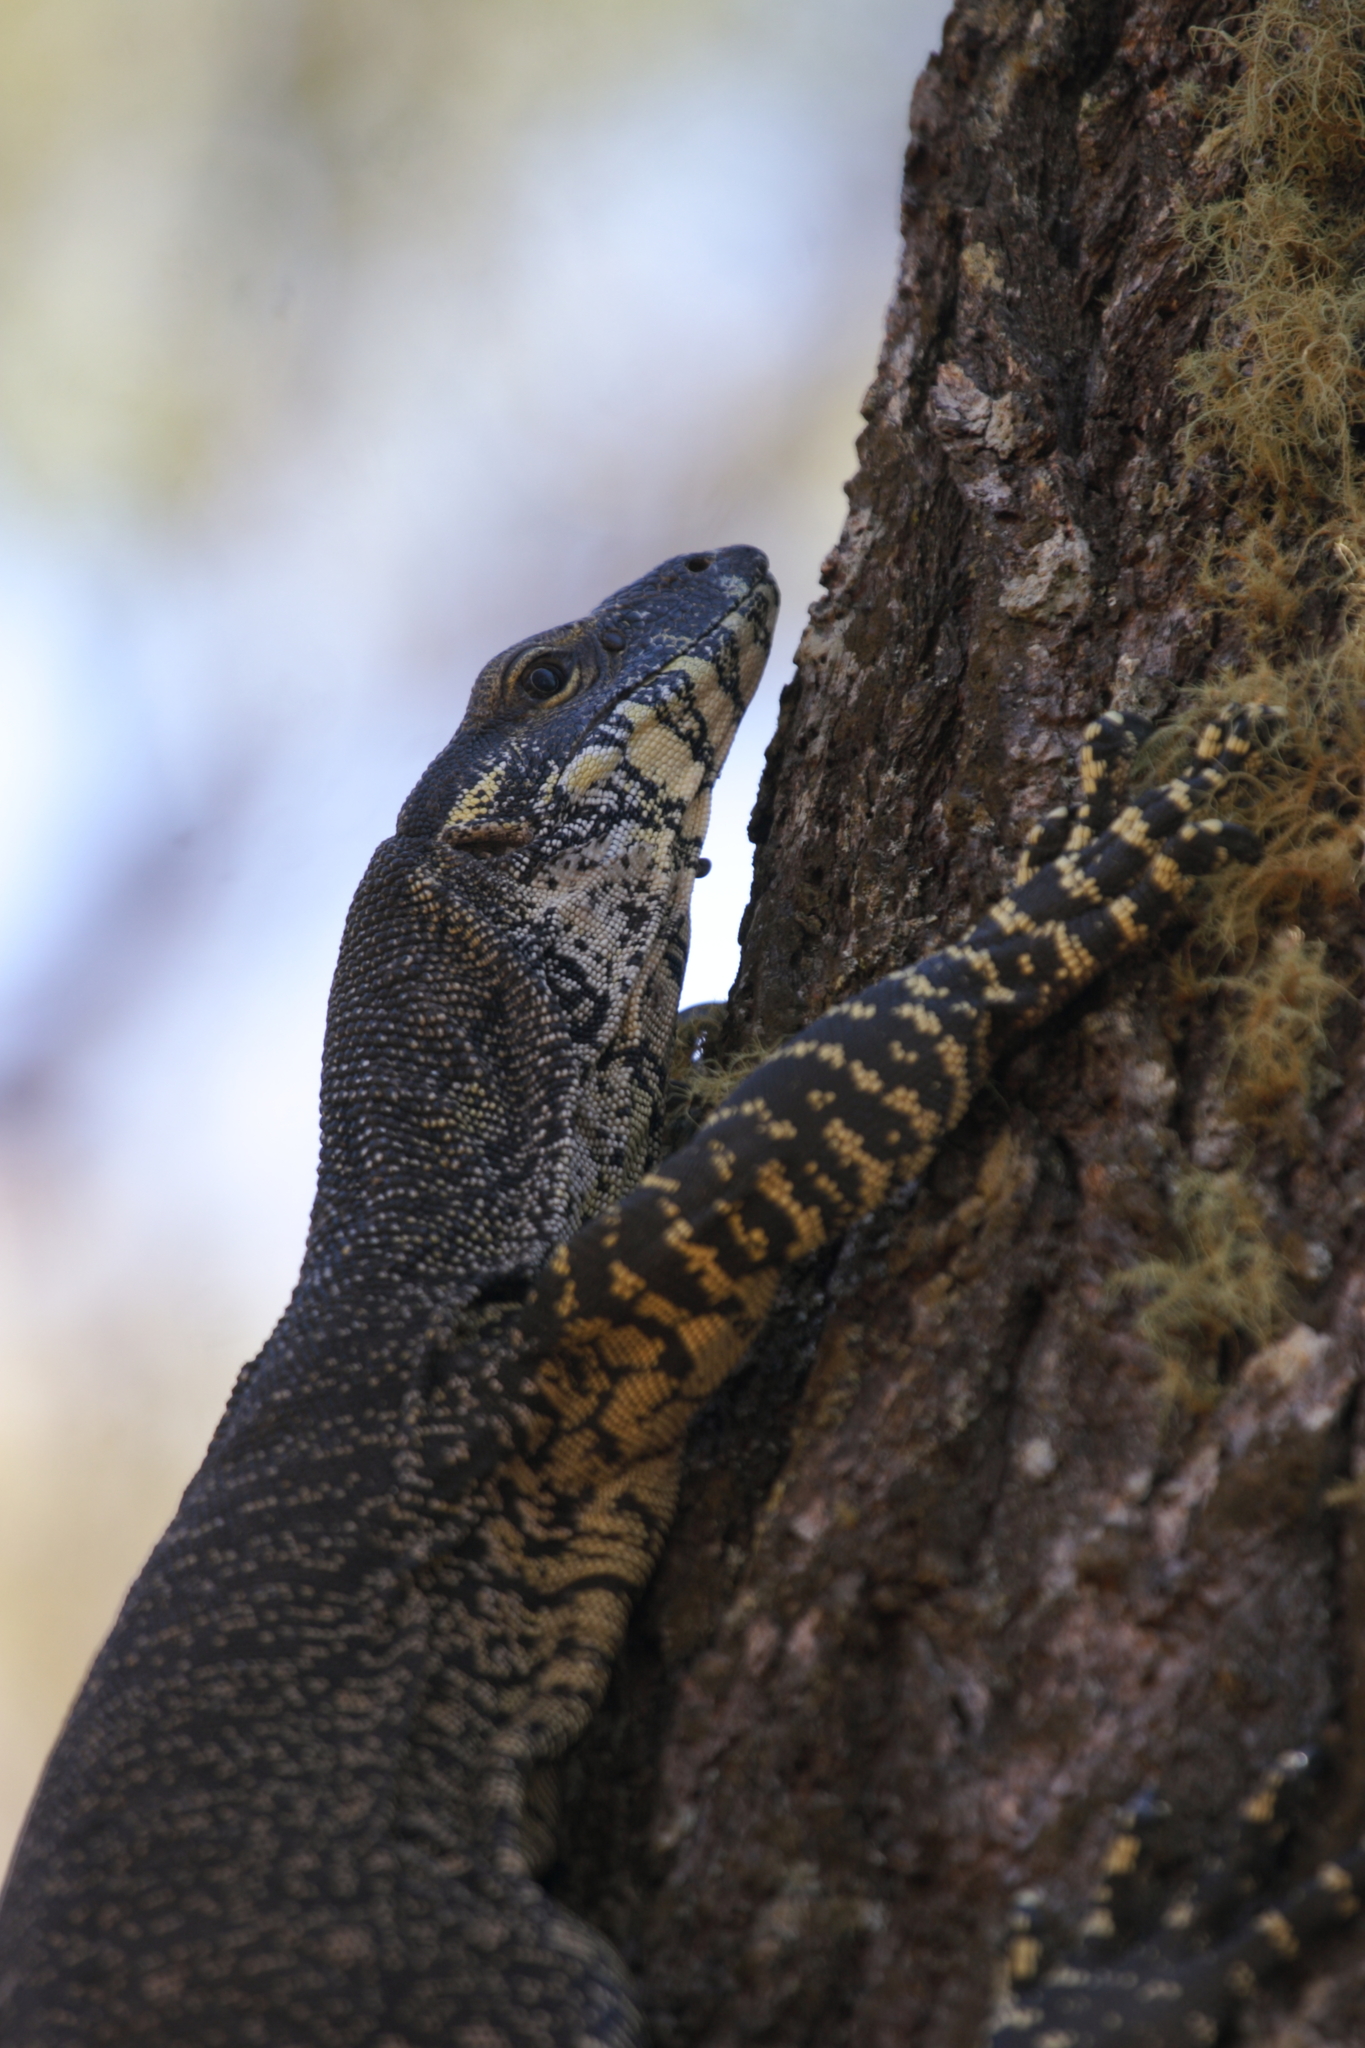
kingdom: Animalia
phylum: Chordata
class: Squamata
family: Varanidae
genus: Varanus
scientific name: Varanus varius
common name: Lace monitor
